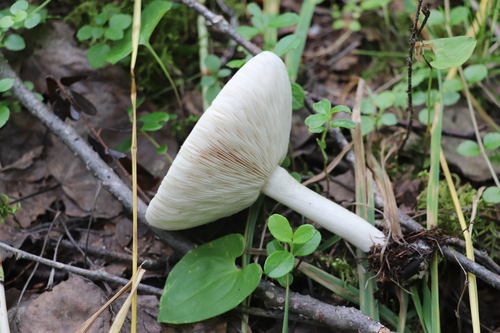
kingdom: Fungi
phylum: Basidiomycota
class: Agaricomycetes
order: Agaricales
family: Tricholomataceae
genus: Melanoleuca
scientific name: Melanoleuca strictipes
